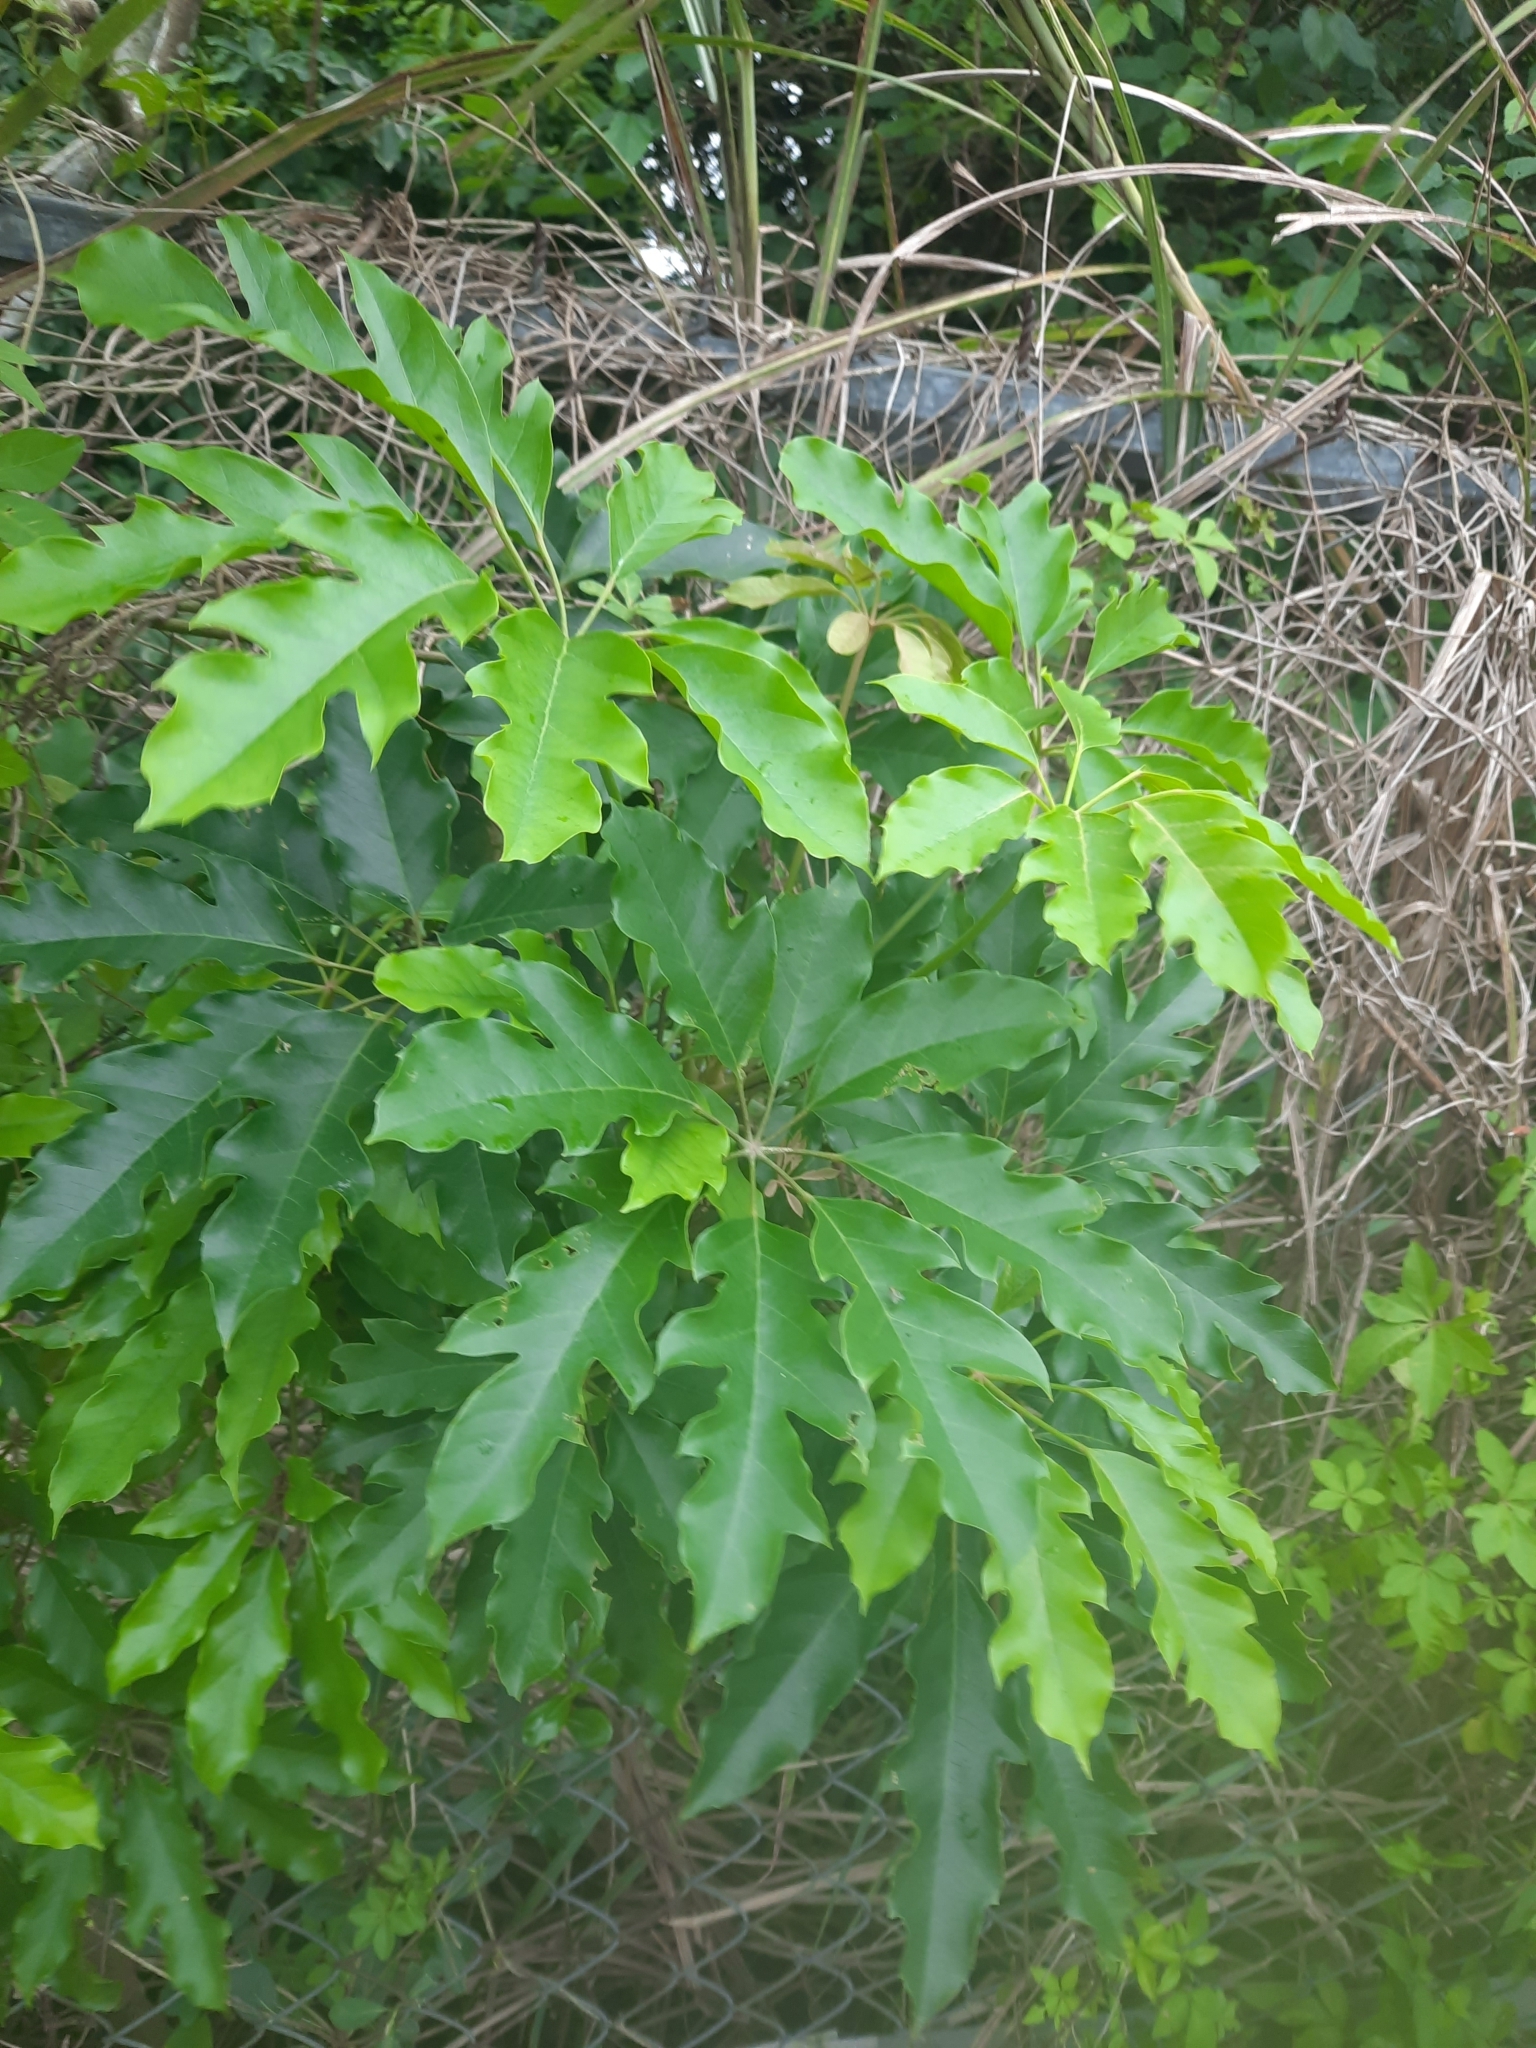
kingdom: Plantae
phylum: Tracheophyta
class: Magnoliopsida
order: Apiales
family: Araliaceae
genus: Heptapleurum
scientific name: Heptapleurum heptaphyllum
